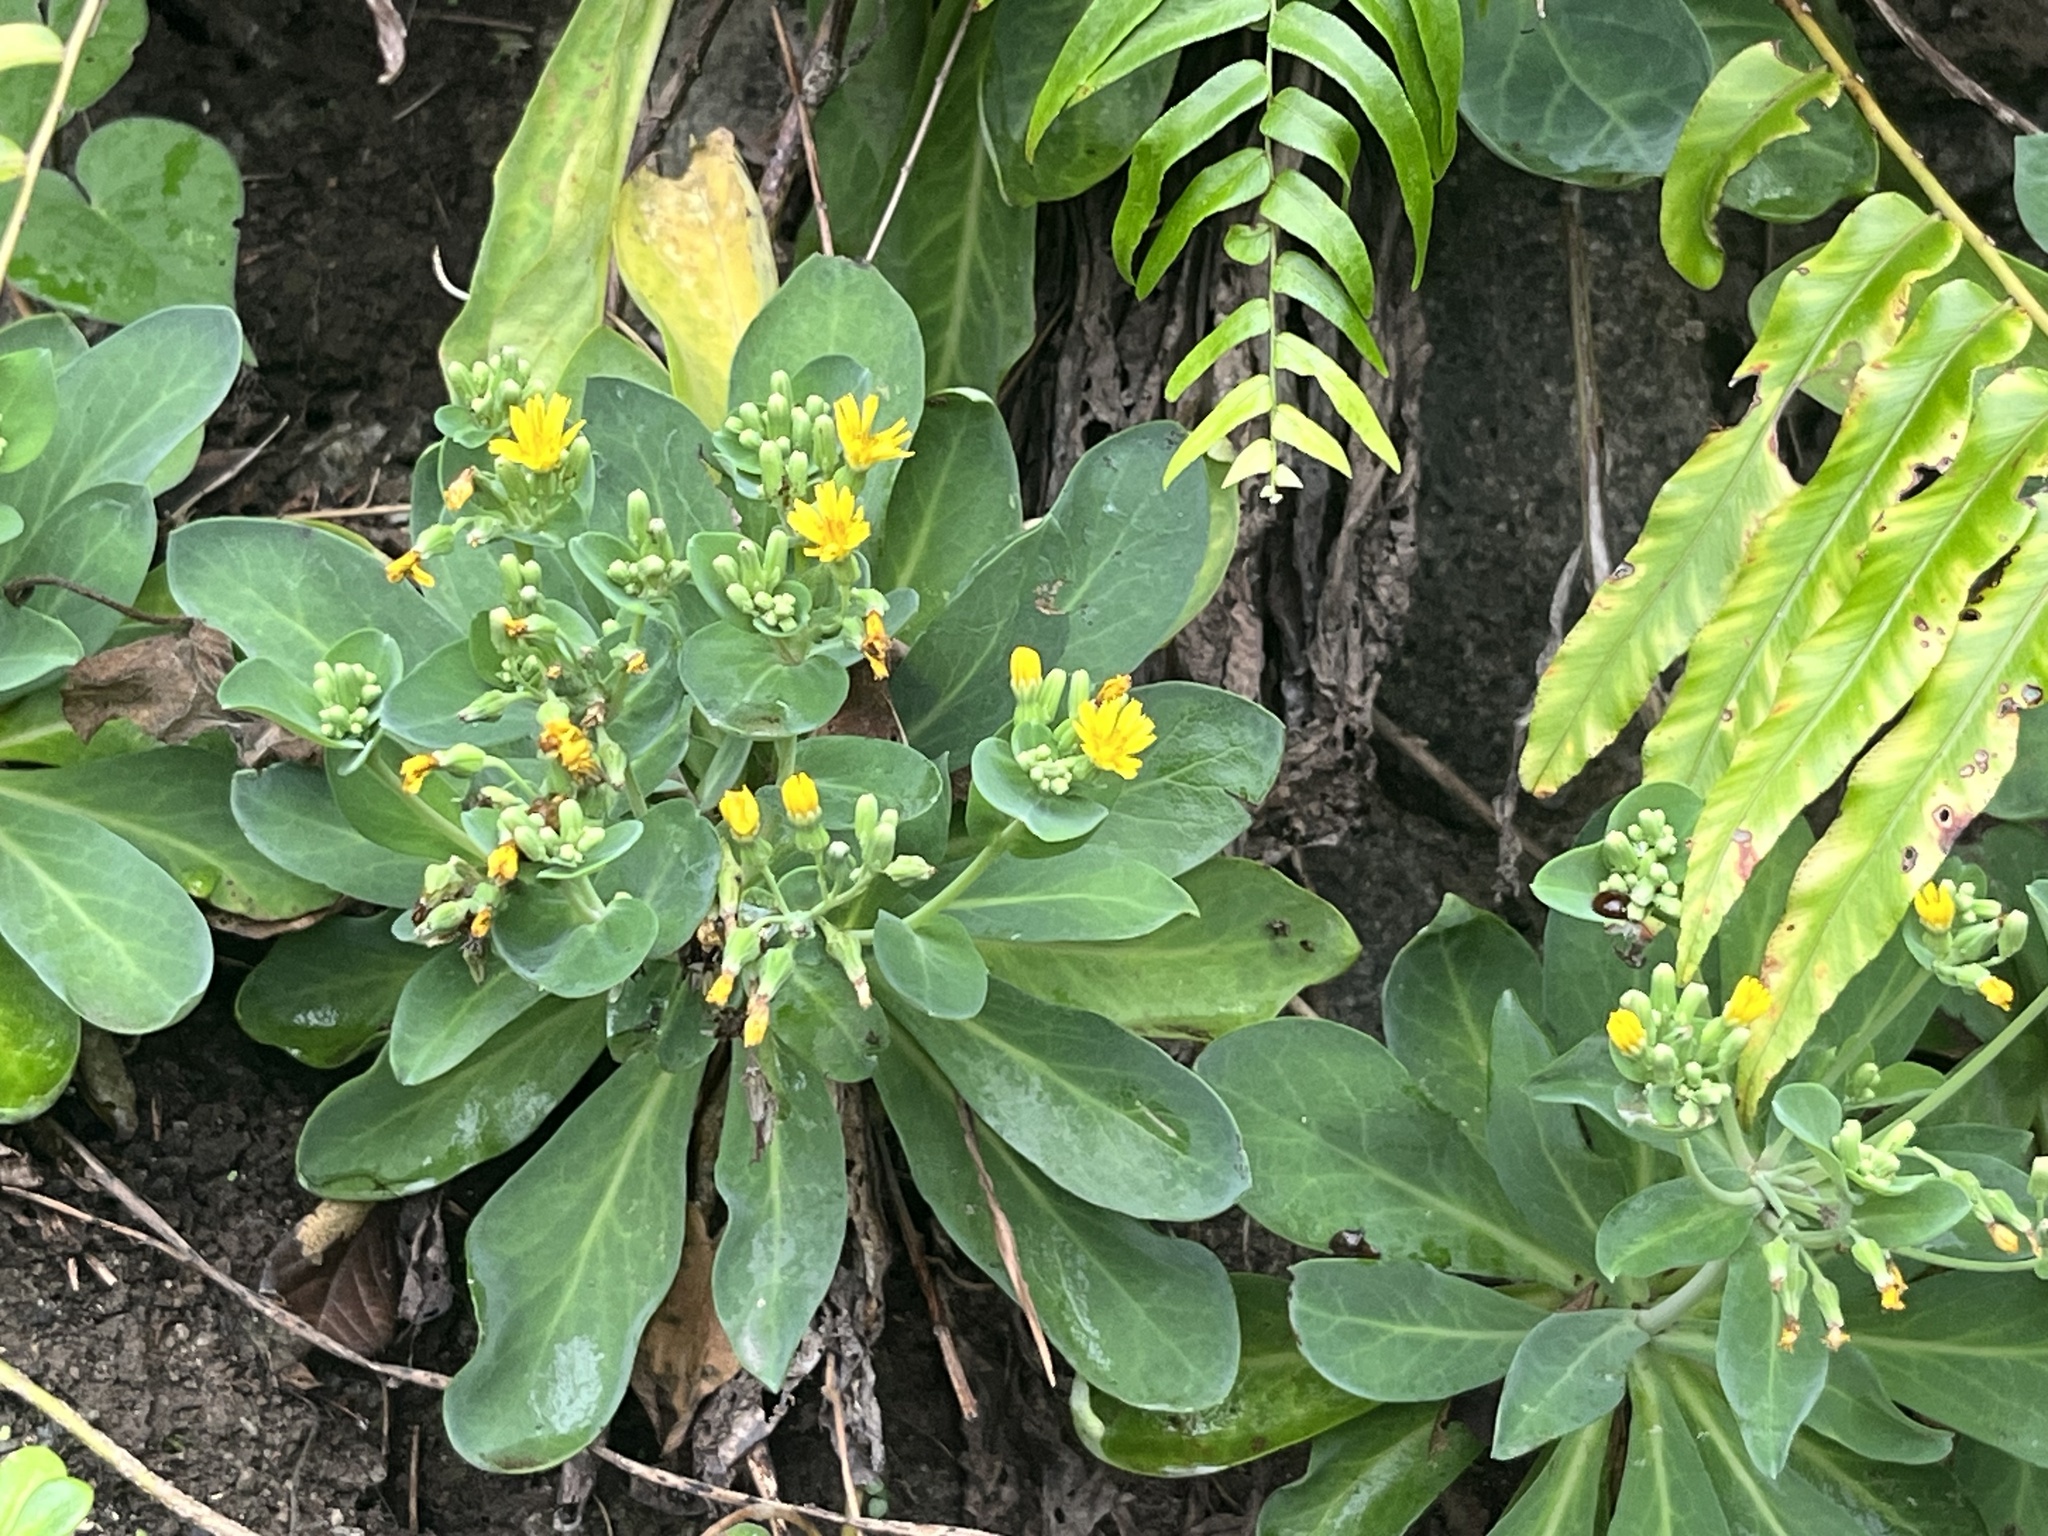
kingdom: Plantae
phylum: Tracheophyta
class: Magnoliopsida
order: Asterales
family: Asteraceae
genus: Crepidiastrum
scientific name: Crepidiastrum taiwanianum
